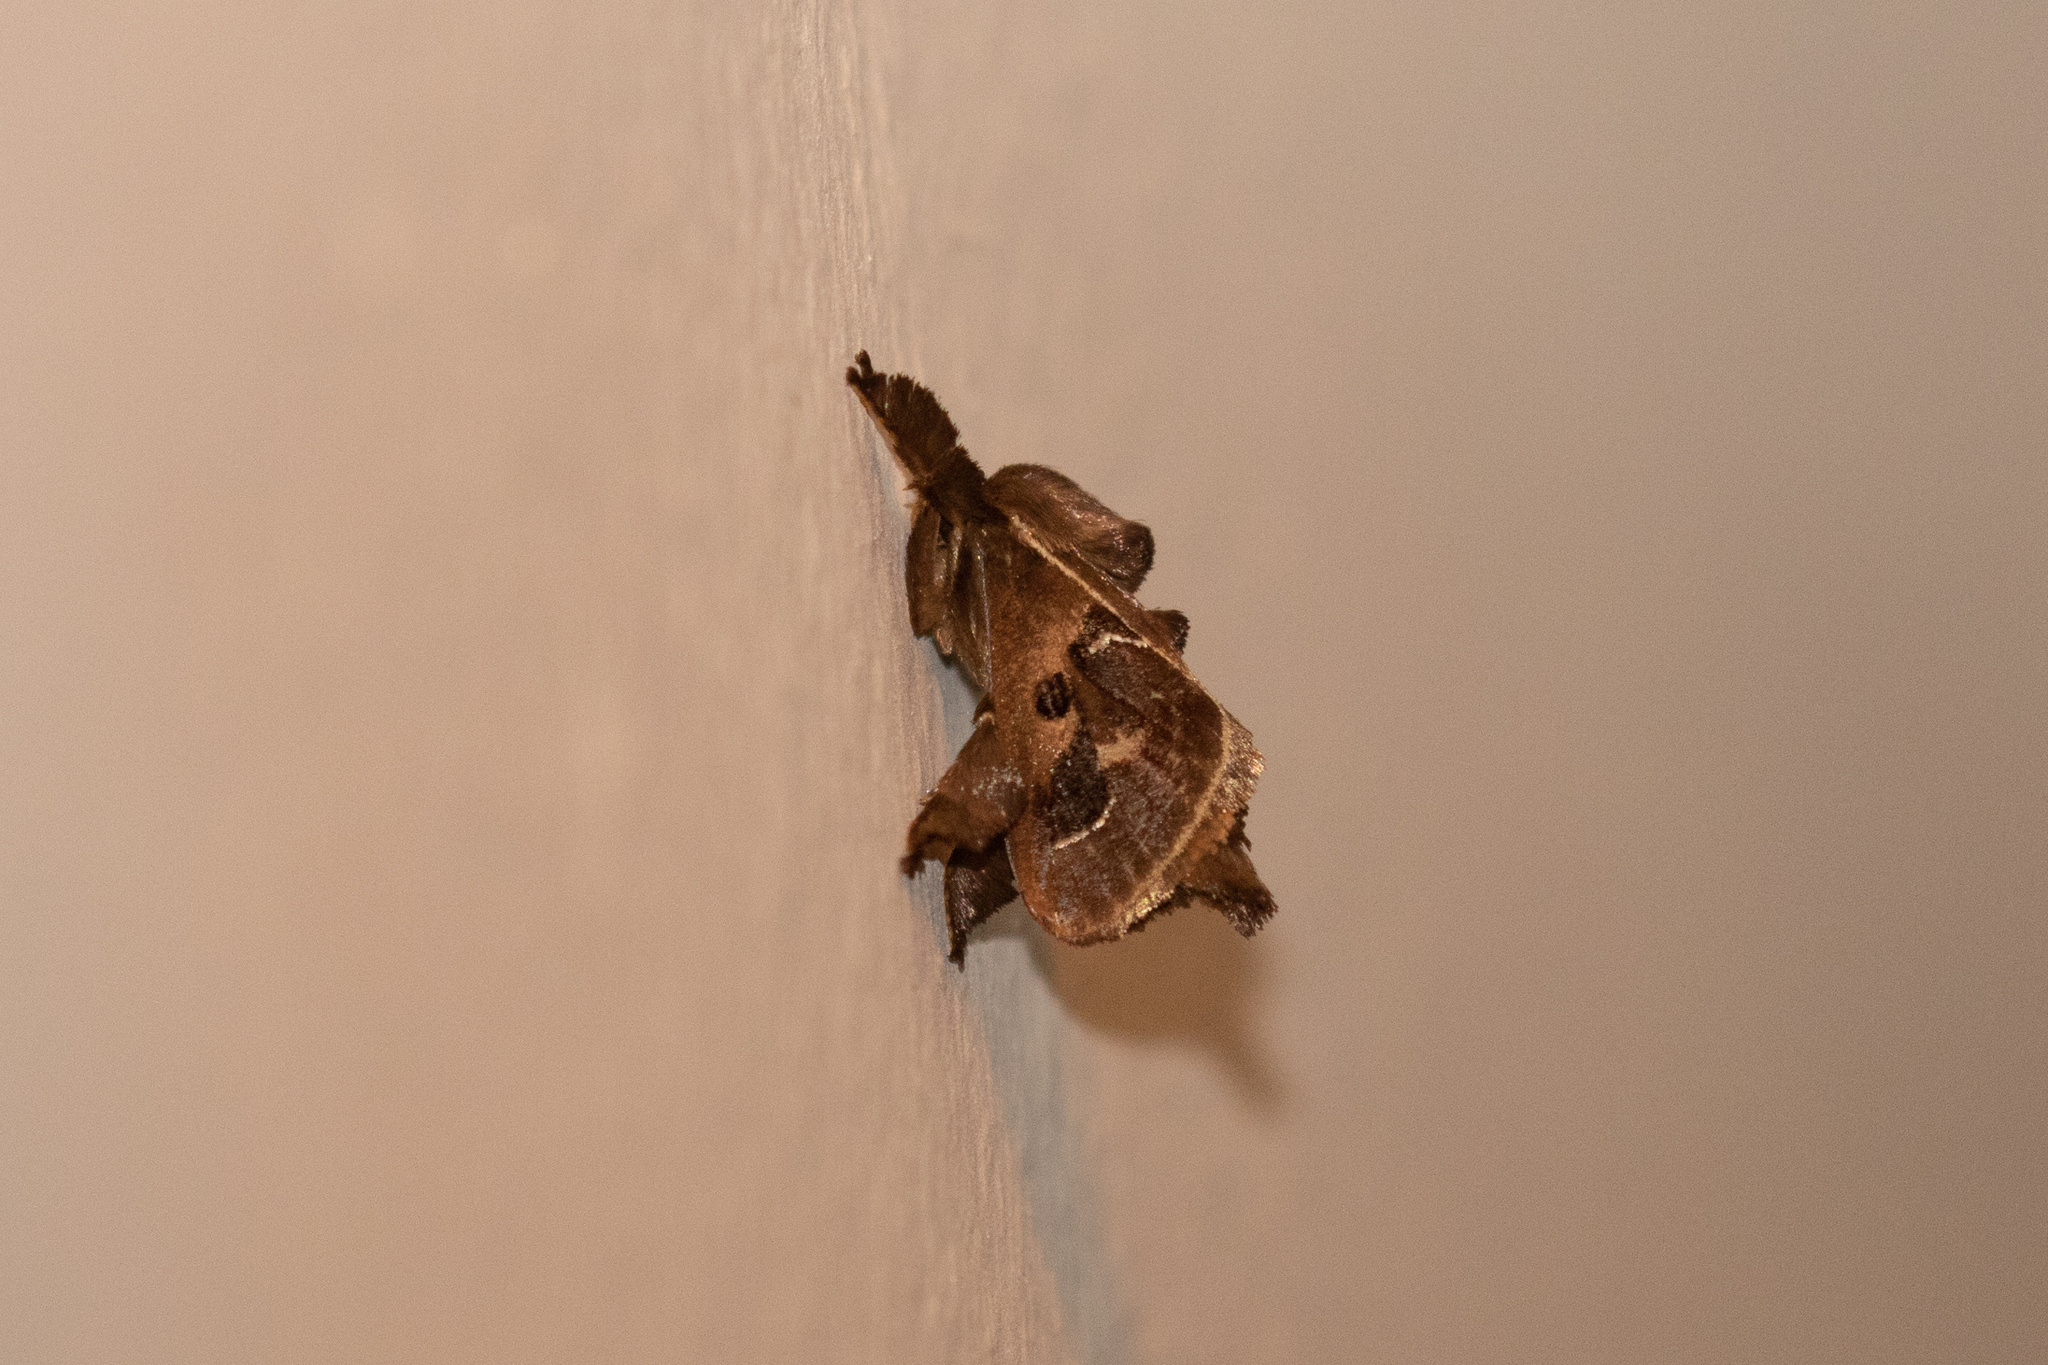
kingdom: Animalia
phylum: Arthropoda
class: Insecta
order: Lepidoptera
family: Limacodidae
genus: Euclea
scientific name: Euclea gajentaani
